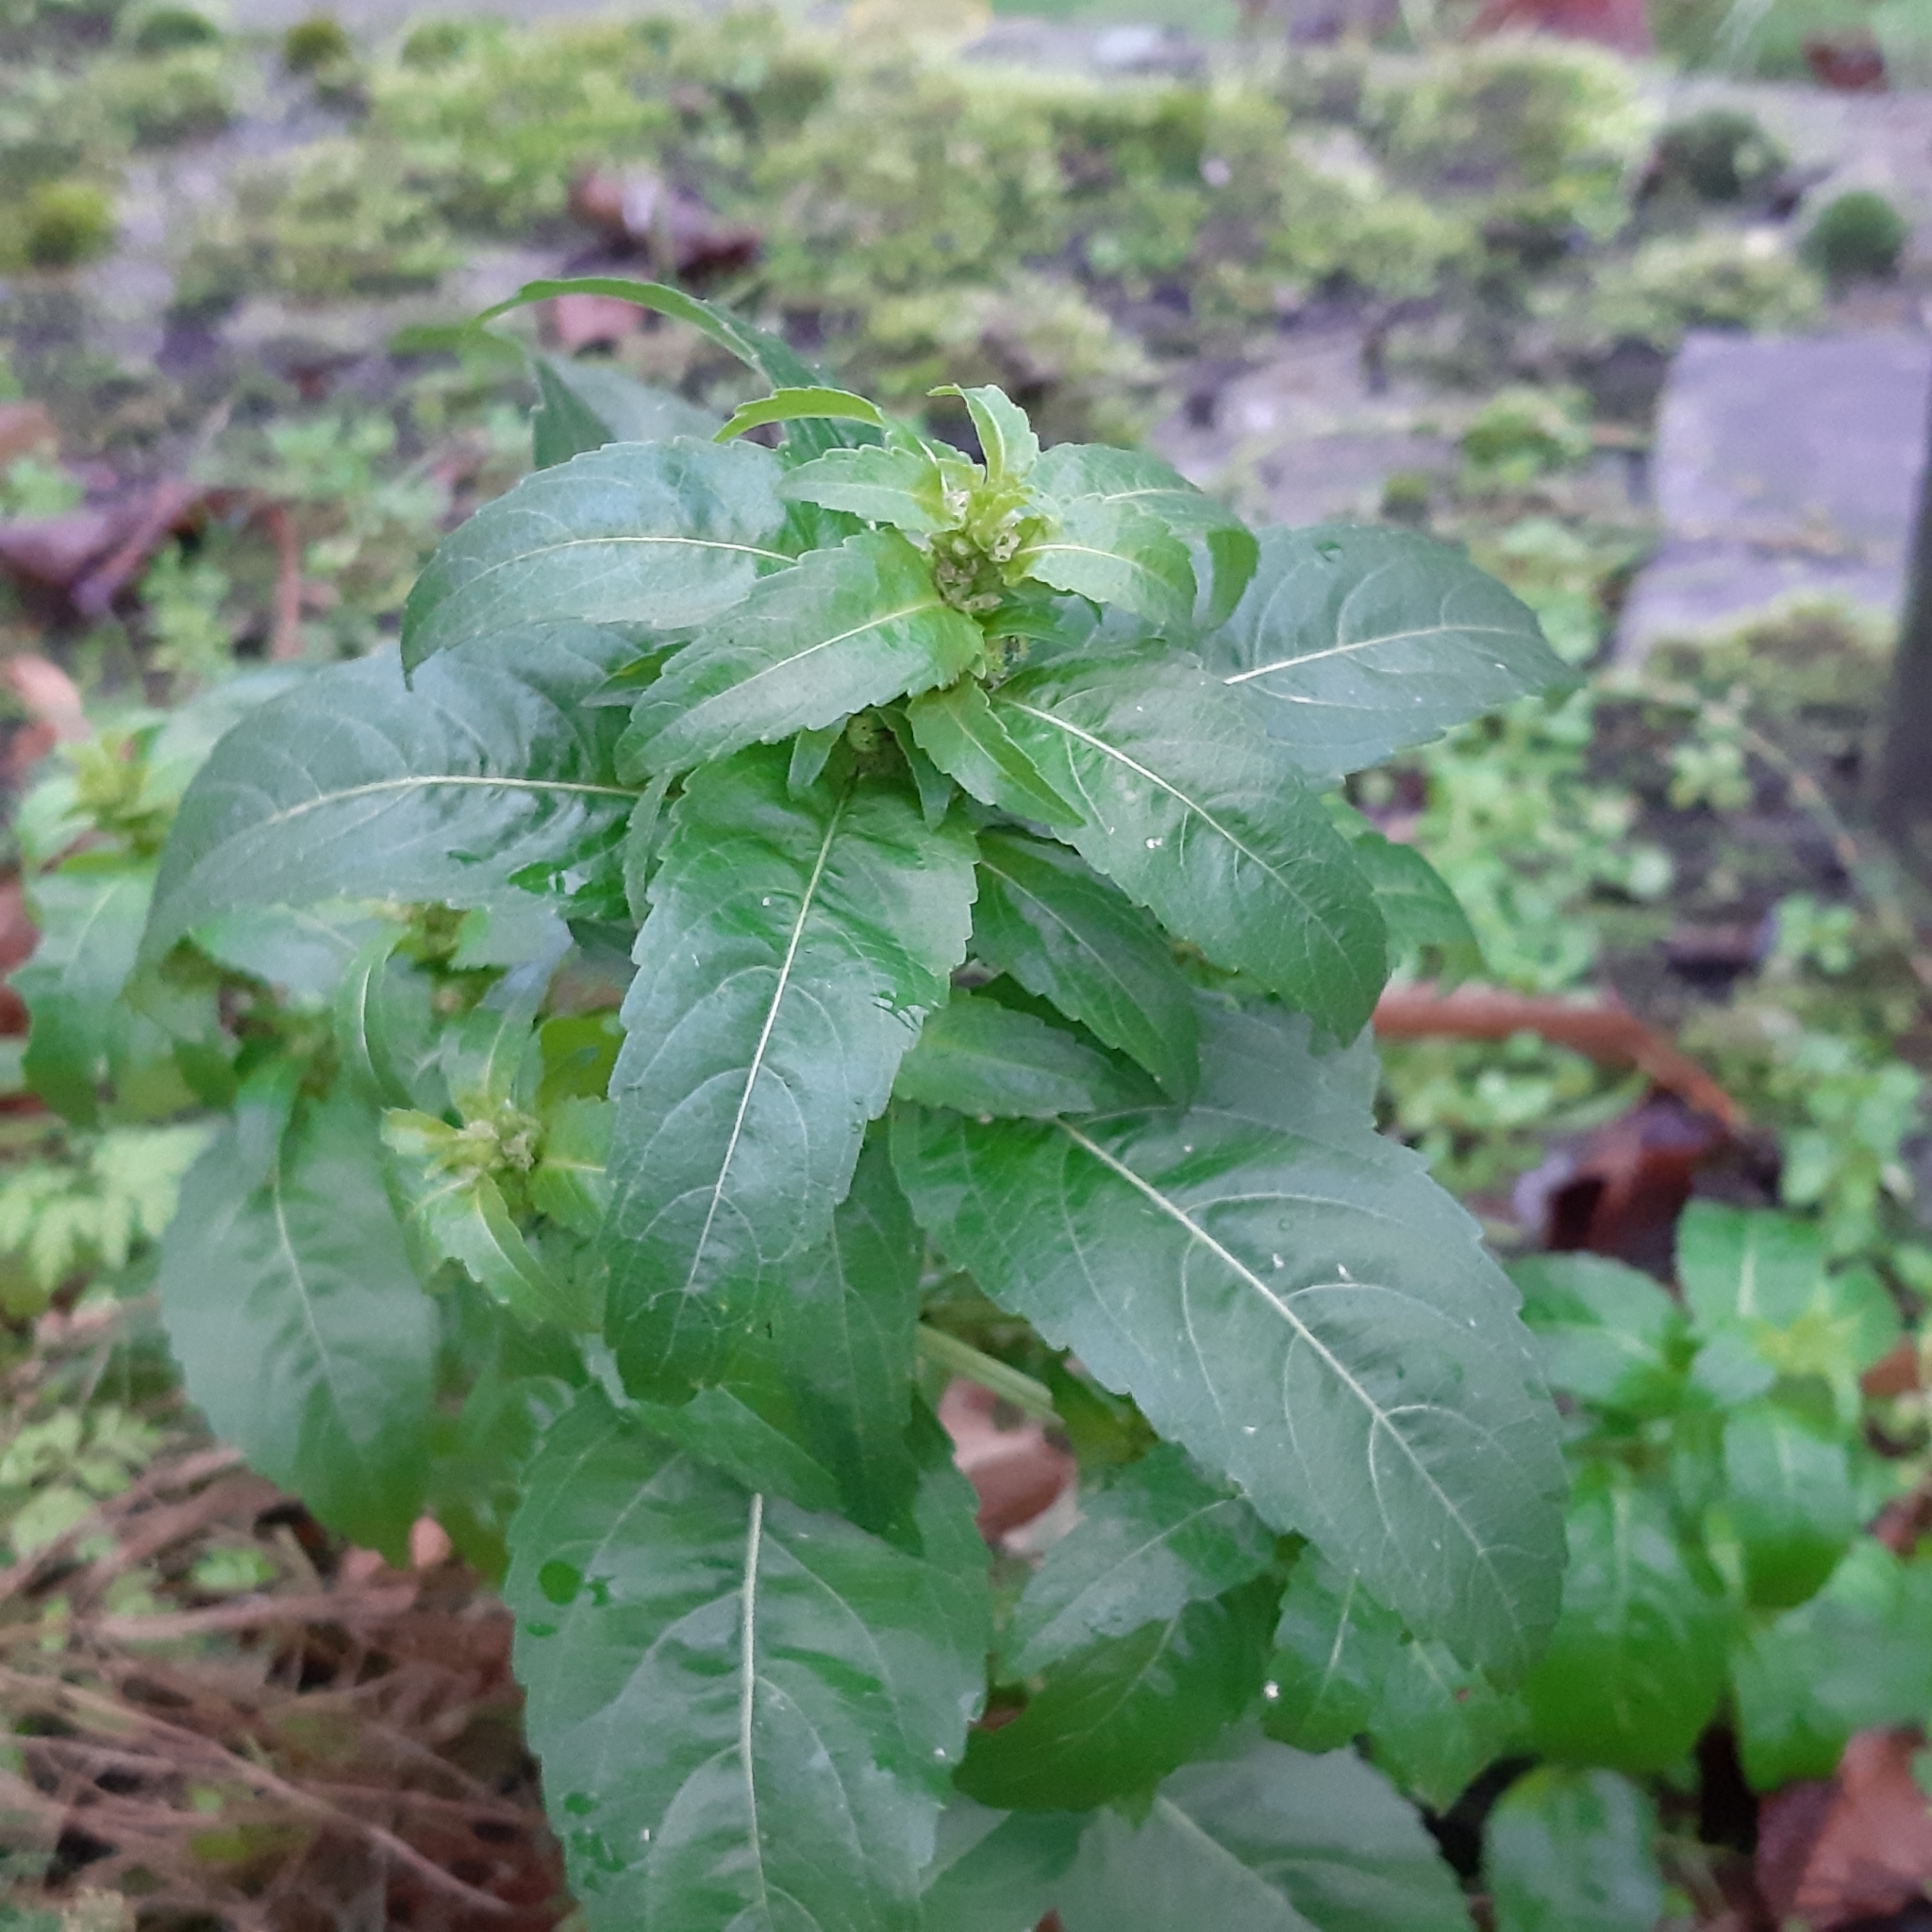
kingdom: Plantae
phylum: Tracheophyta
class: Magnoliopsida
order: Malpighiales
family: Euphorbiaceae
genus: Mercurialis
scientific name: Mercurialis annua
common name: Annual mercury
